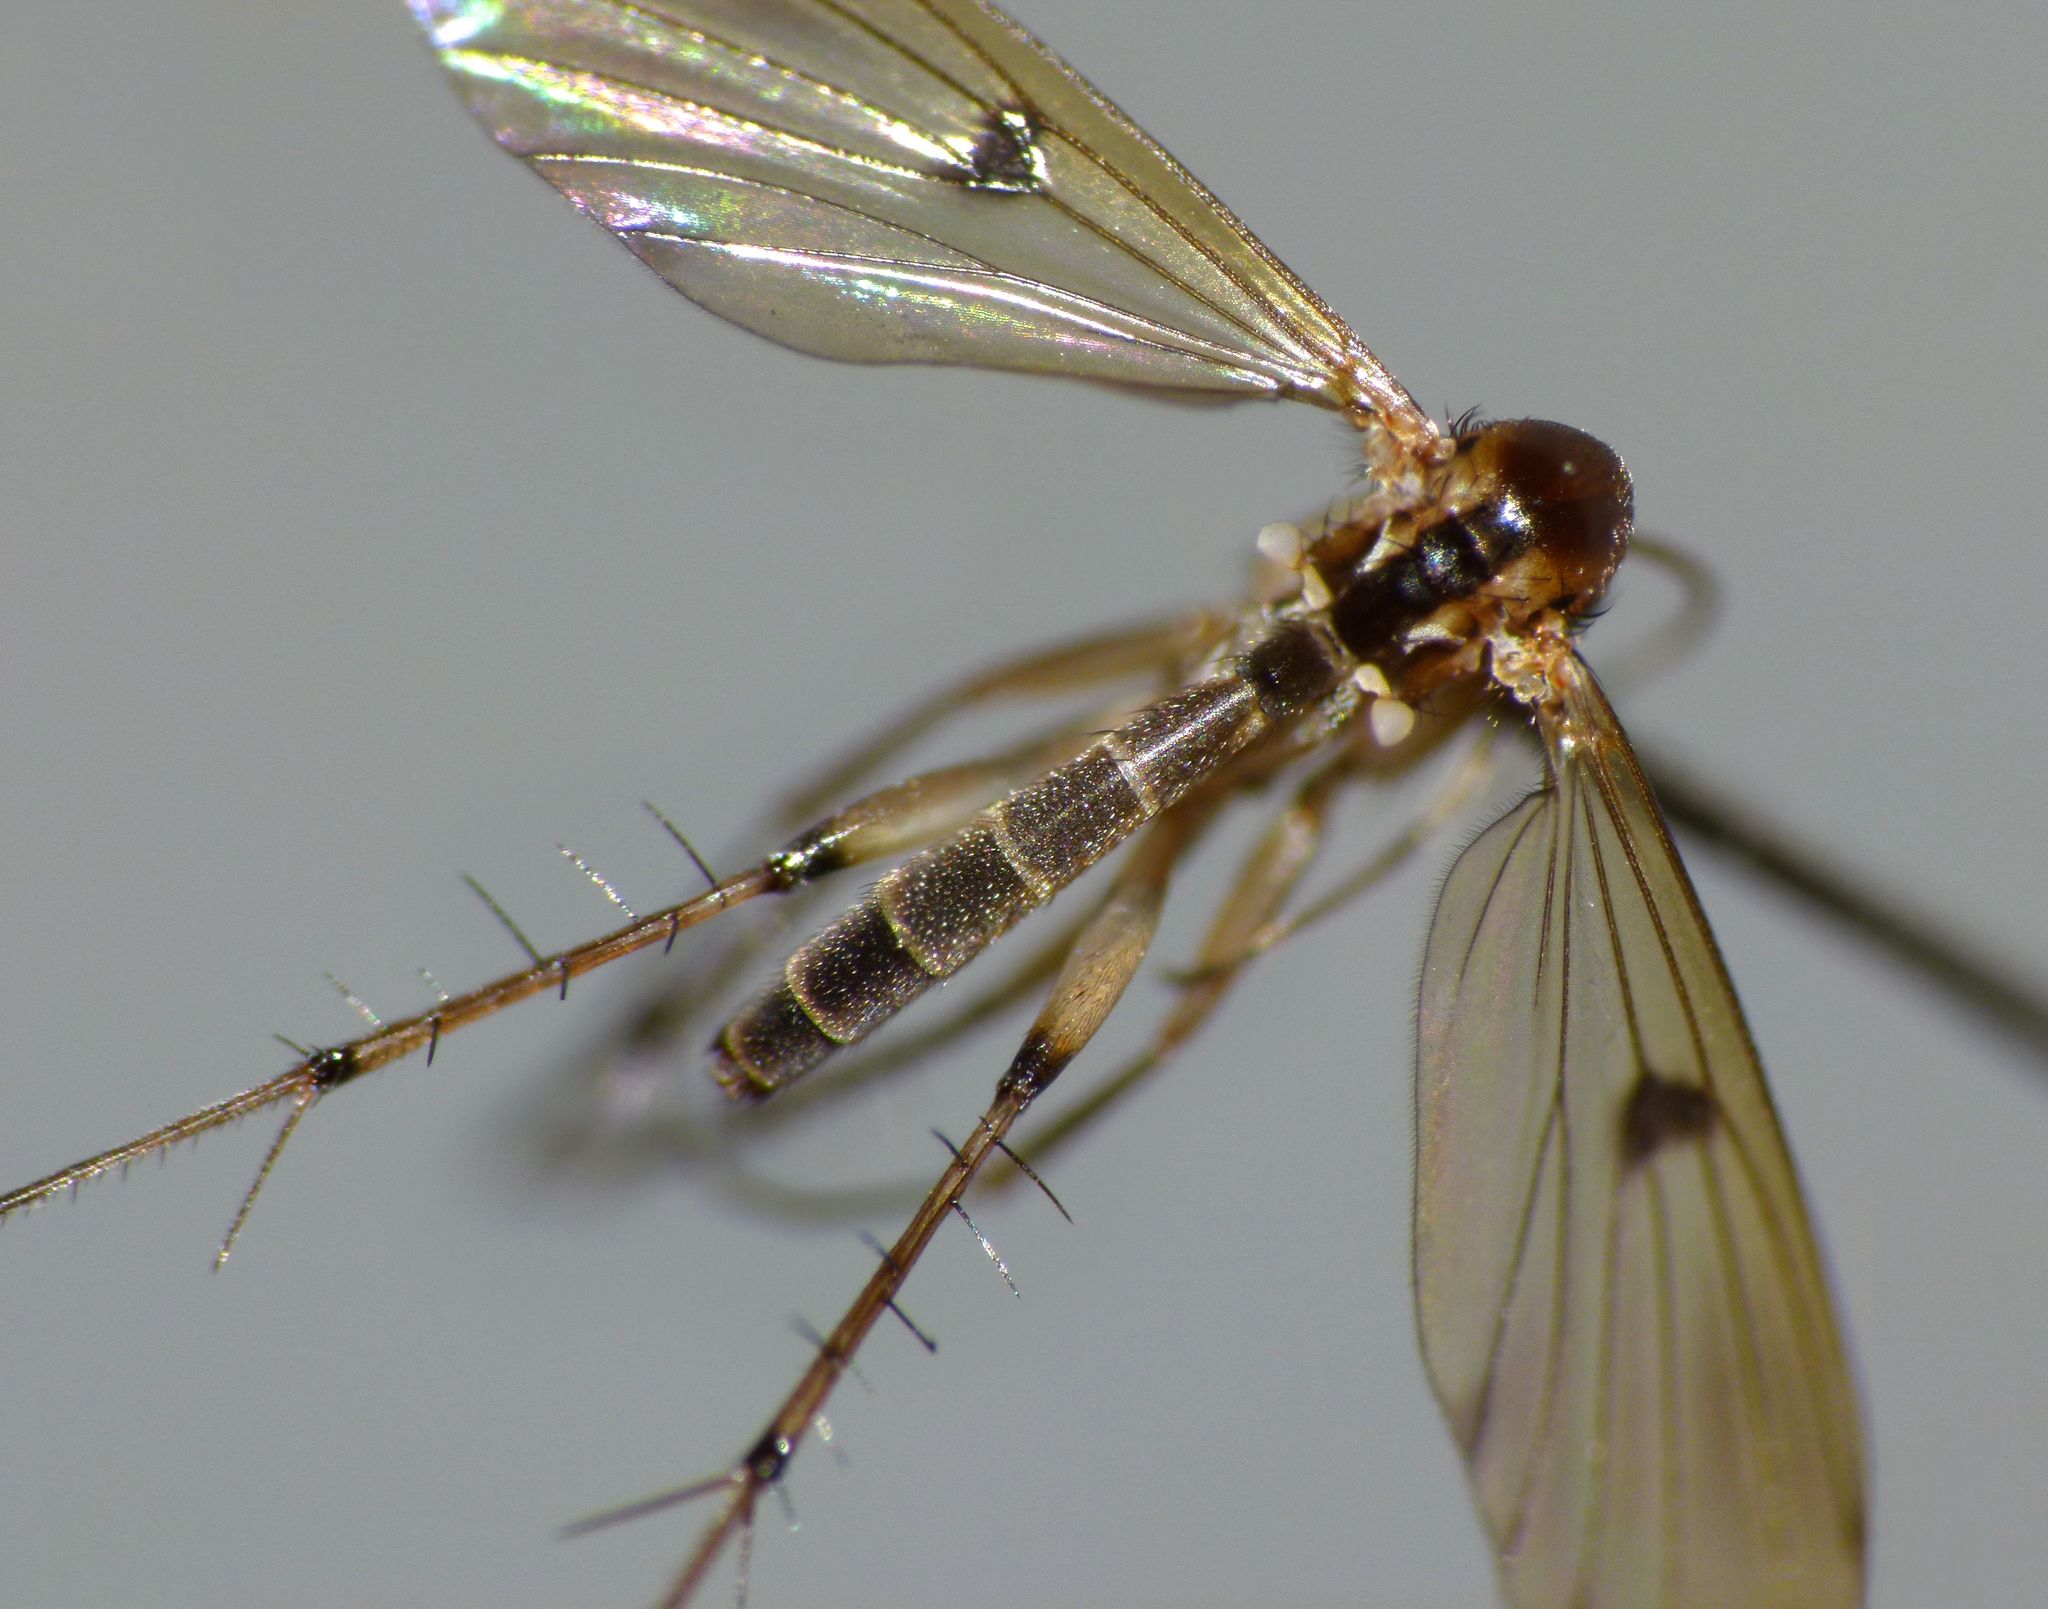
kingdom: Animalia
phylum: Arthropoda
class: Insecta
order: Diptera
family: Mycetophilidae
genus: Mycetophila
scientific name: Mycetophila marginepunctata
